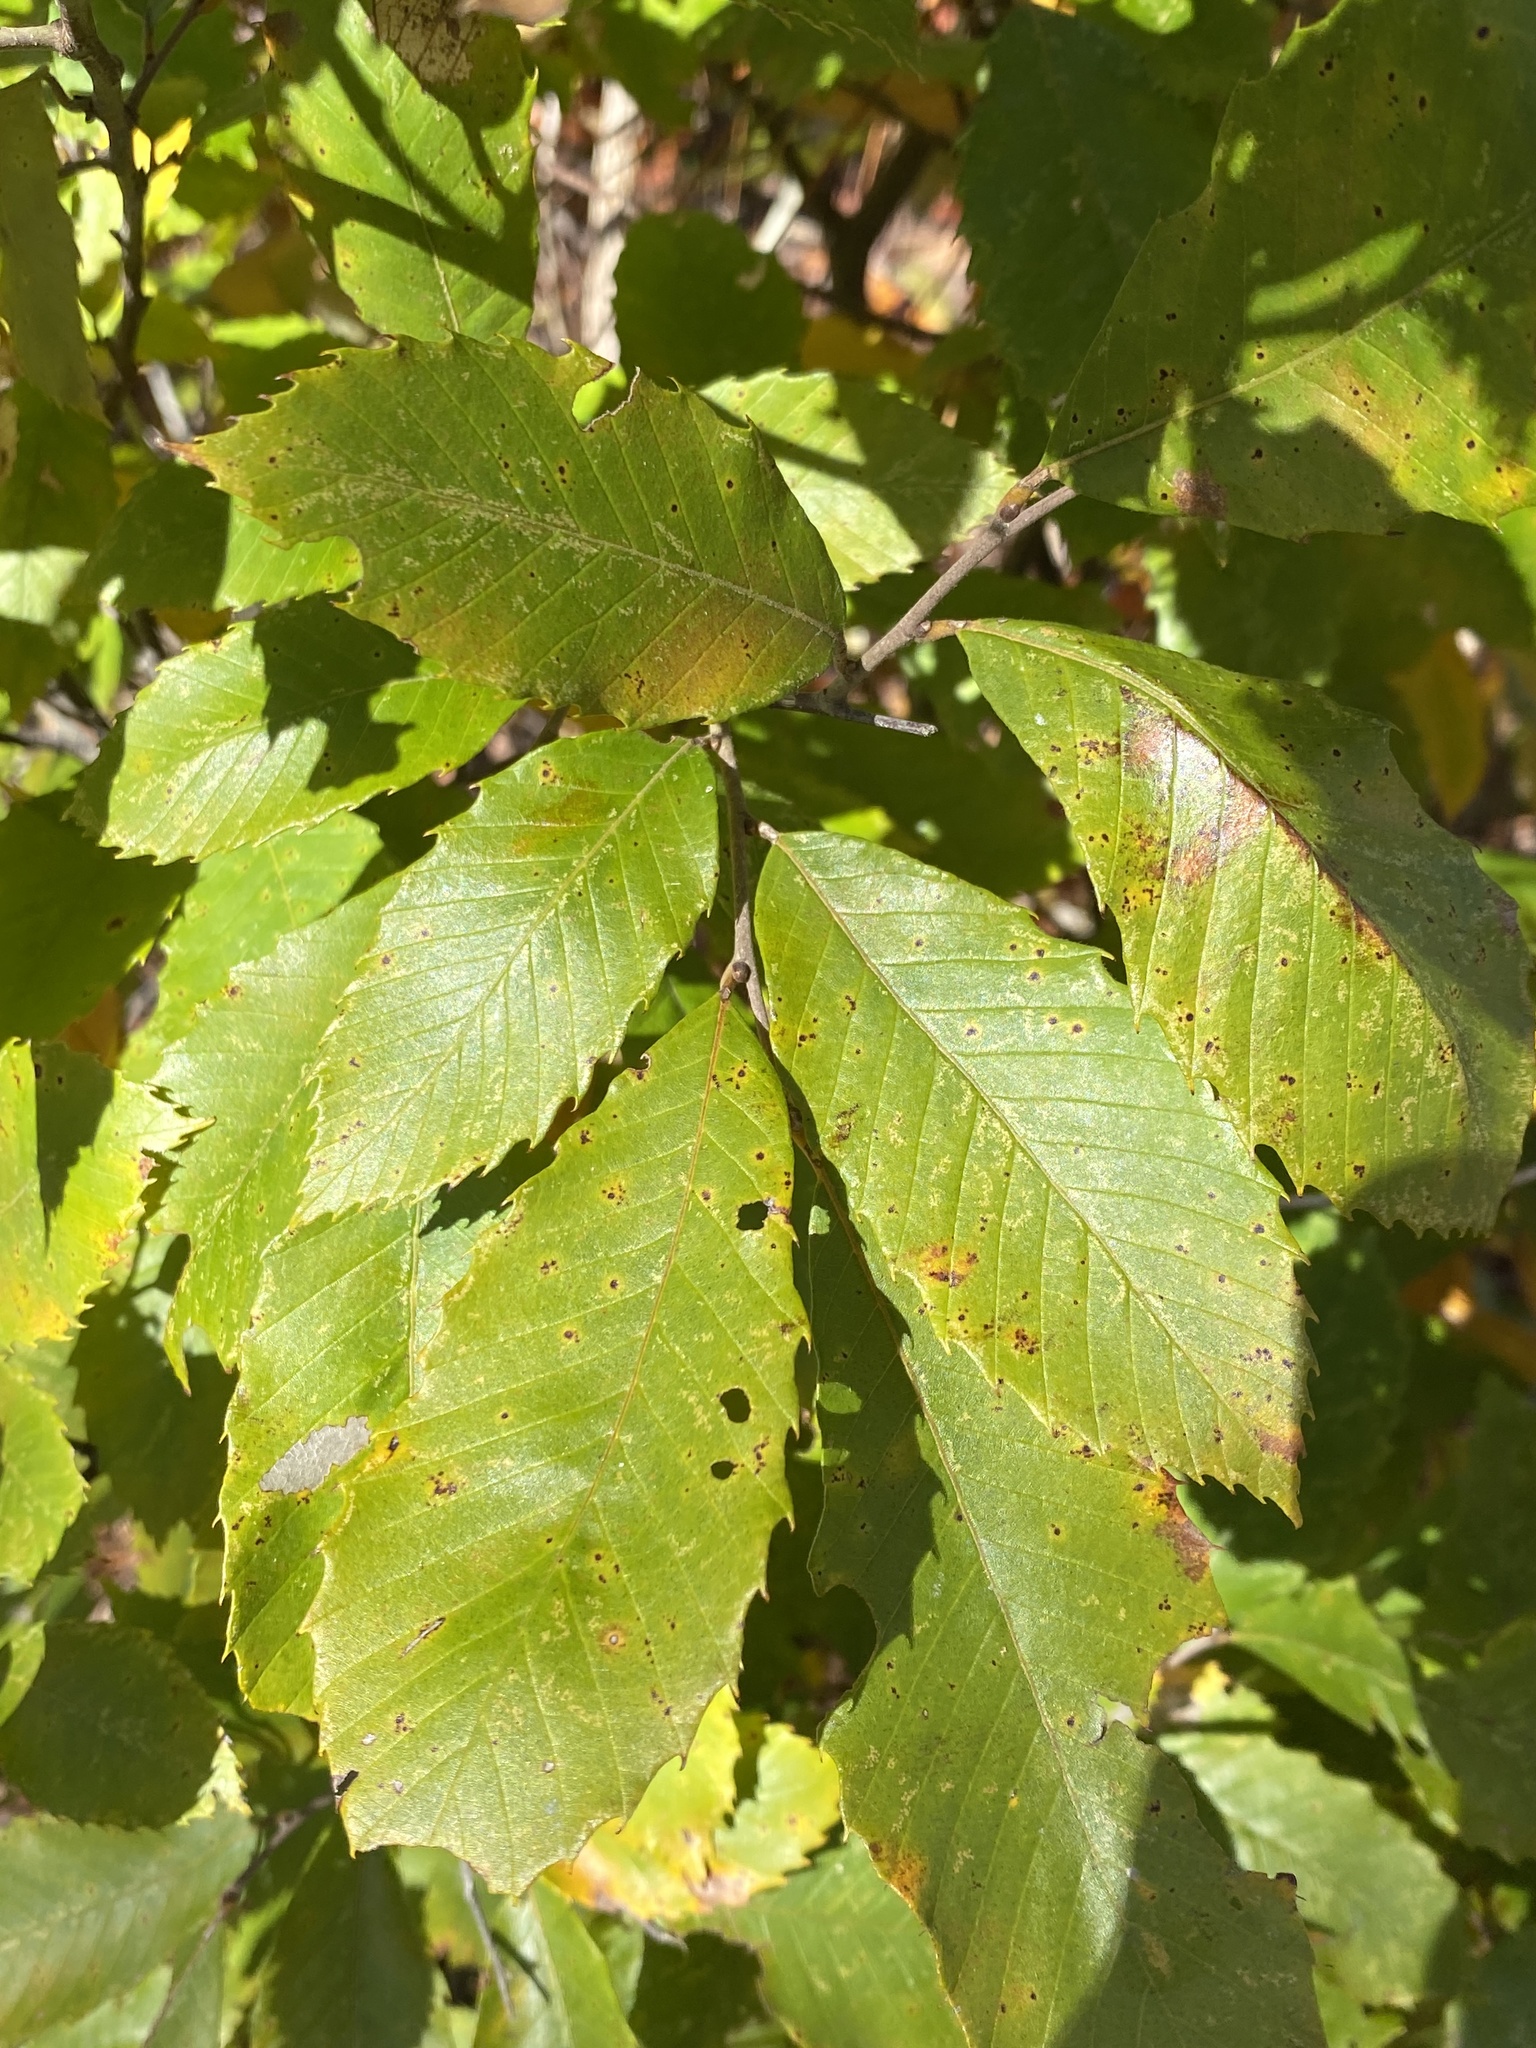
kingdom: Plantae
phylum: Tracheophyta
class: Magnoliopsida
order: Fagales
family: Fagaceae
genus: Castanea
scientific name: Castanea pumila
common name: Chinkapin
